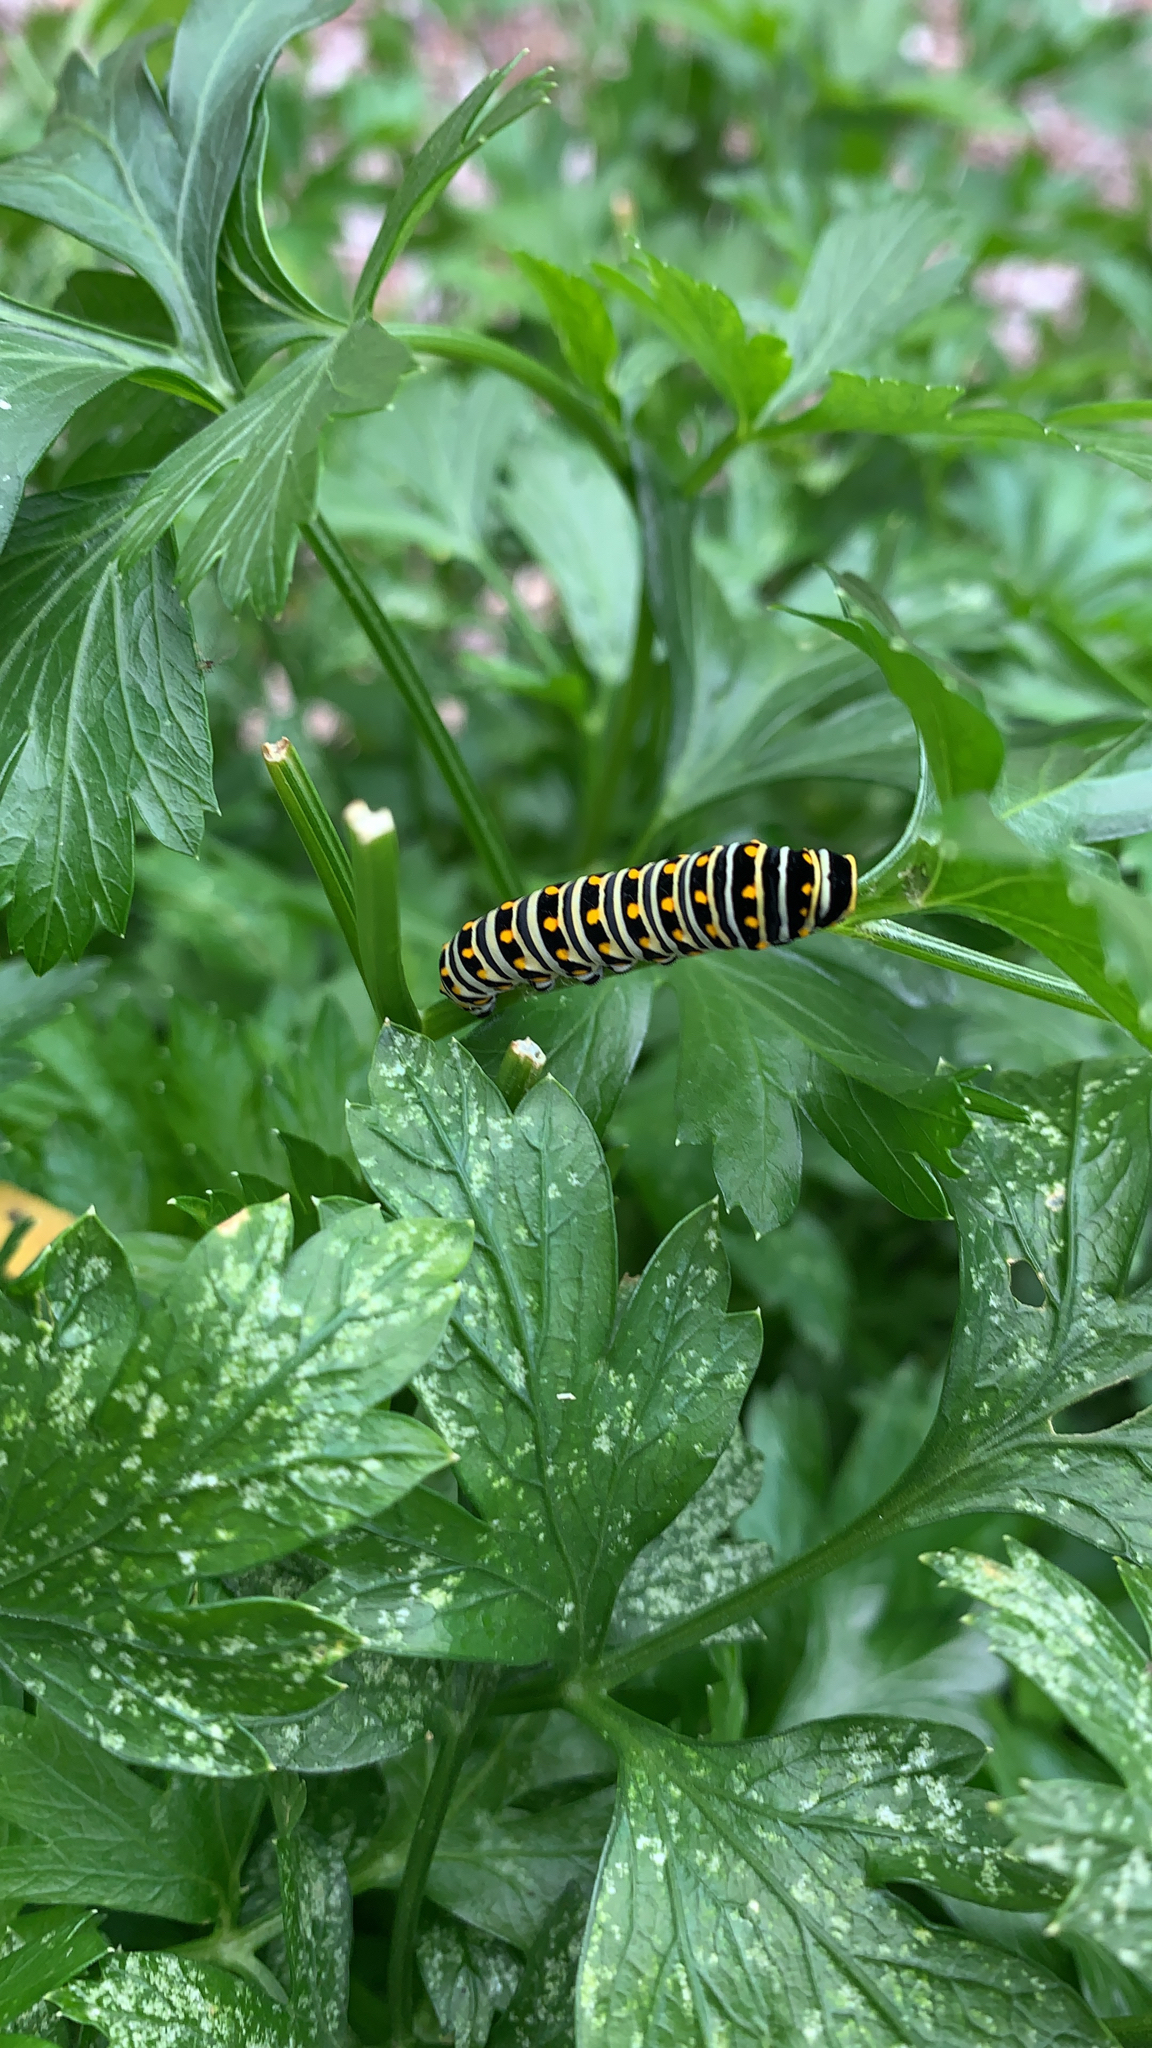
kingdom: Animalia
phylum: Arthropoda
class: Insecta
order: Lepidoptera
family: Papilionidae
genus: Papilio
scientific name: Papilio polyxenes
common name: Black swallowtail
